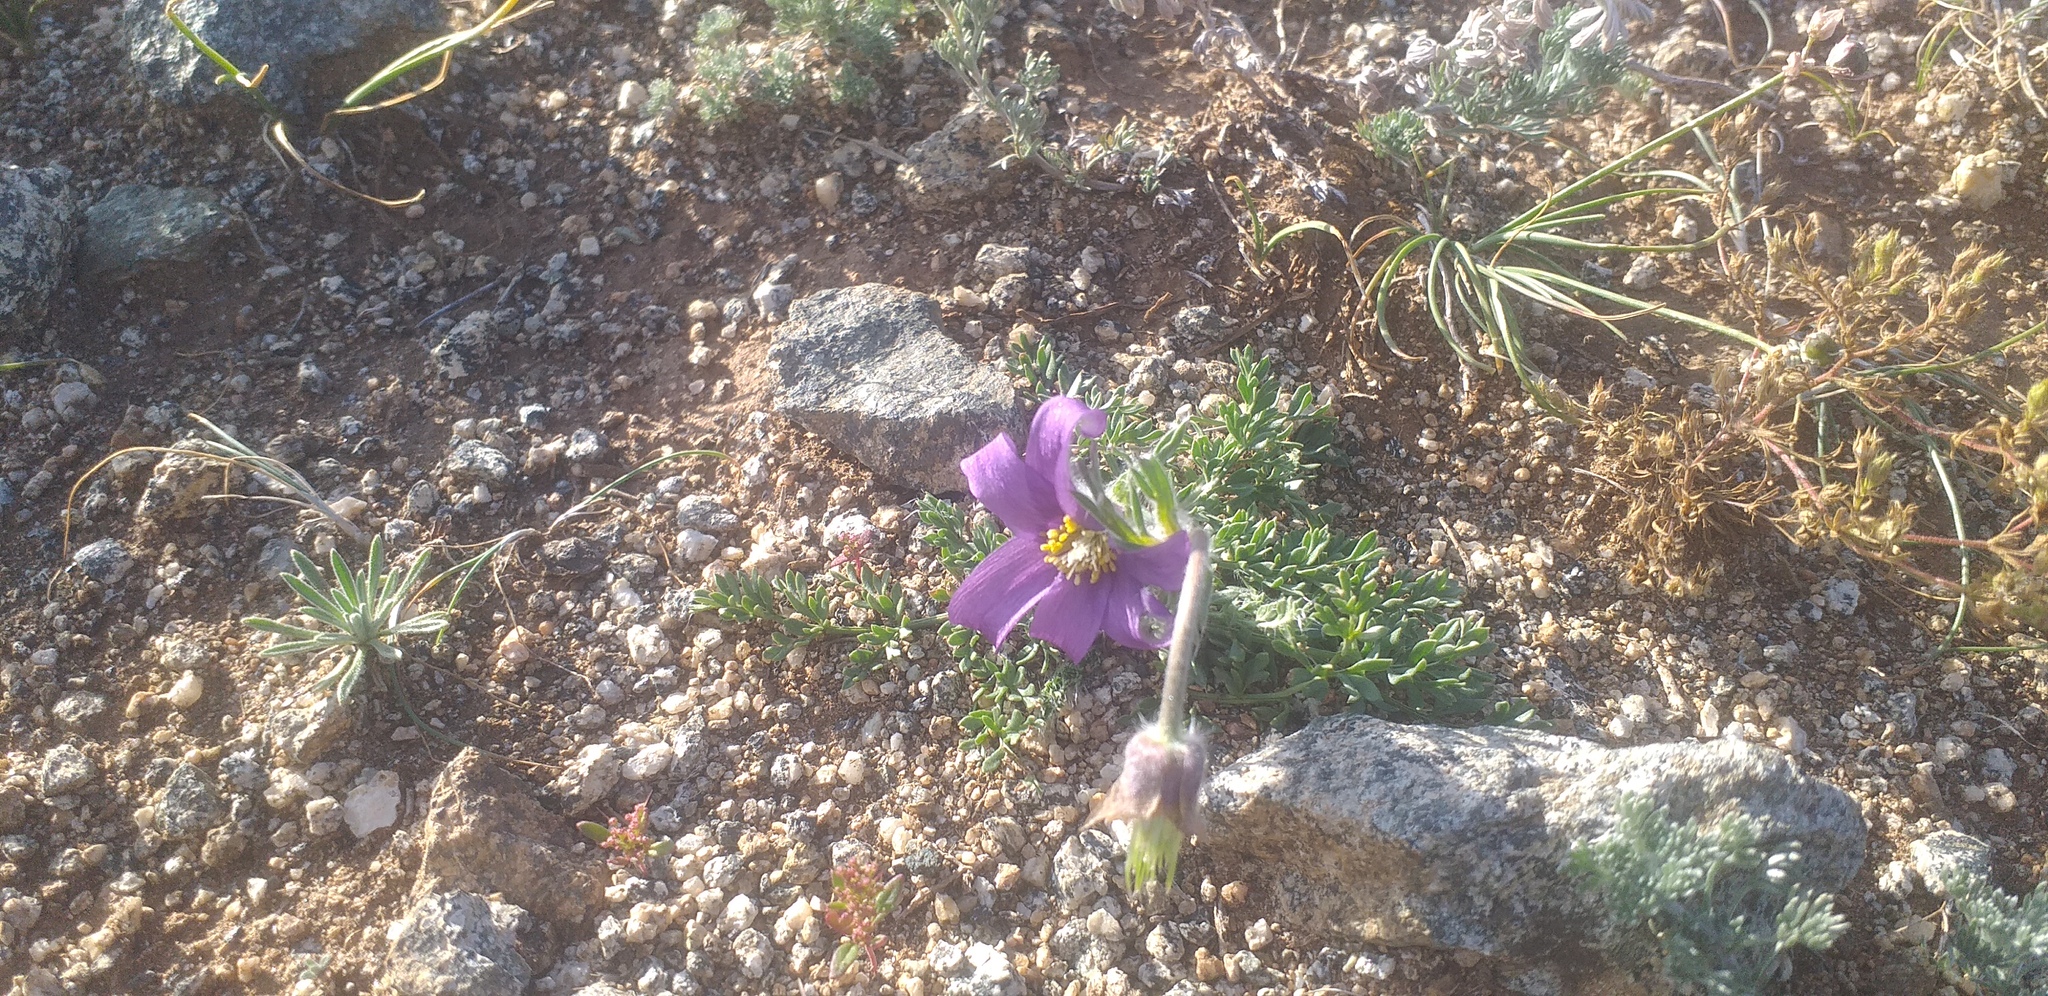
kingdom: Plantae
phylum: Tracheophyta
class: Magnoliopsida
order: Ranunculales
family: Ranunculaceae
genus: Pulsatilla
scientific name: Pulsatilla turczaninovii
